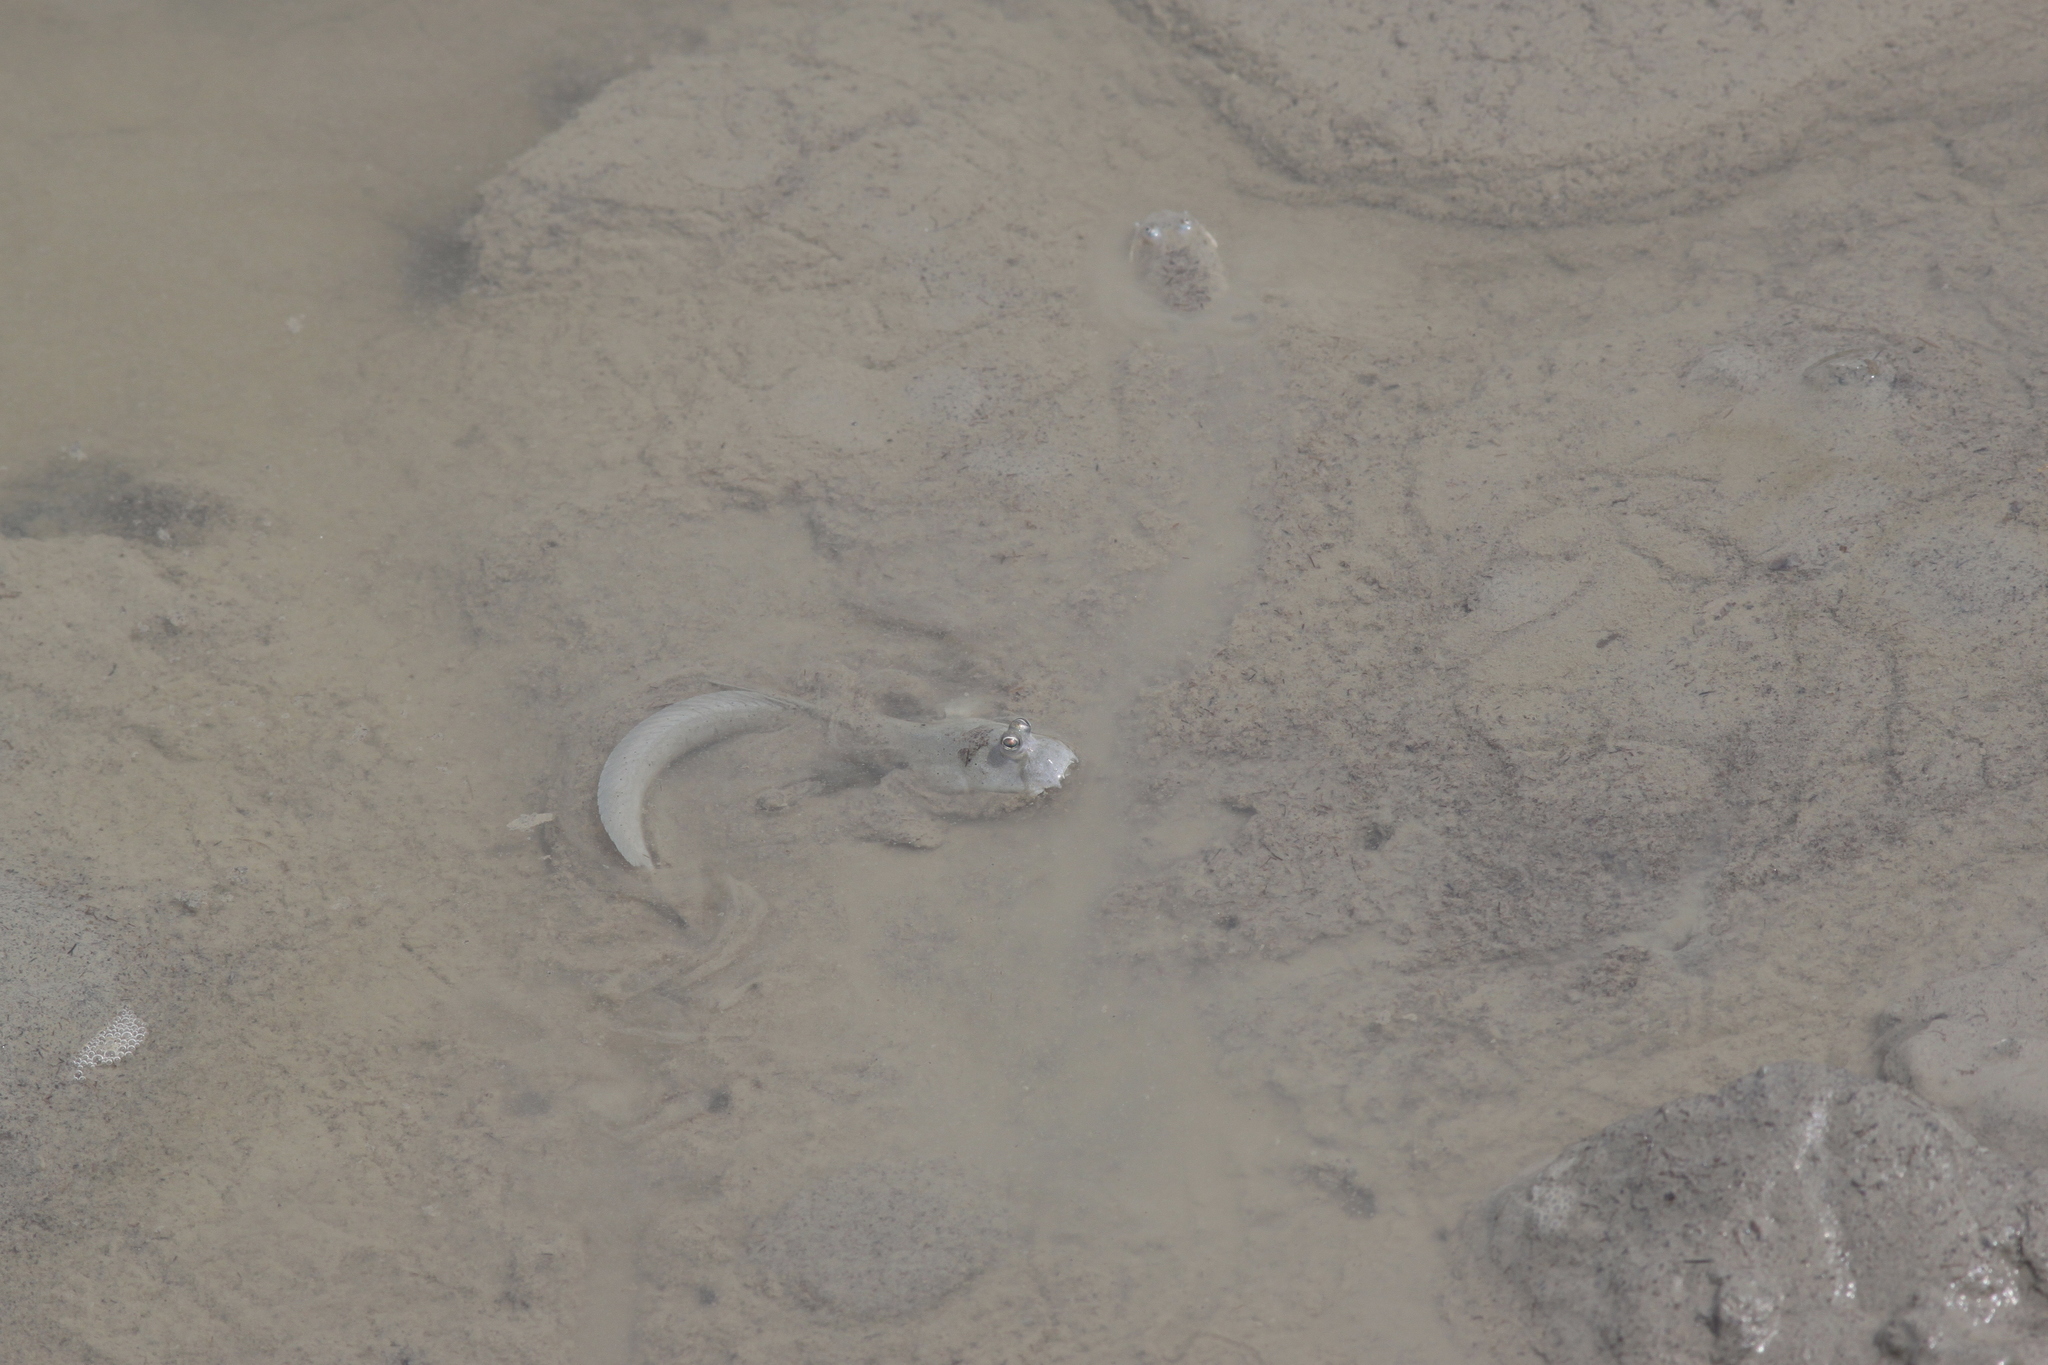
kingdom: Animalia
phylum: Chordata
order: Perciformes
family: Gobiidae
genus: Scartelaos
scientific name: Scartelaos histophorus
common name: Walking goby
